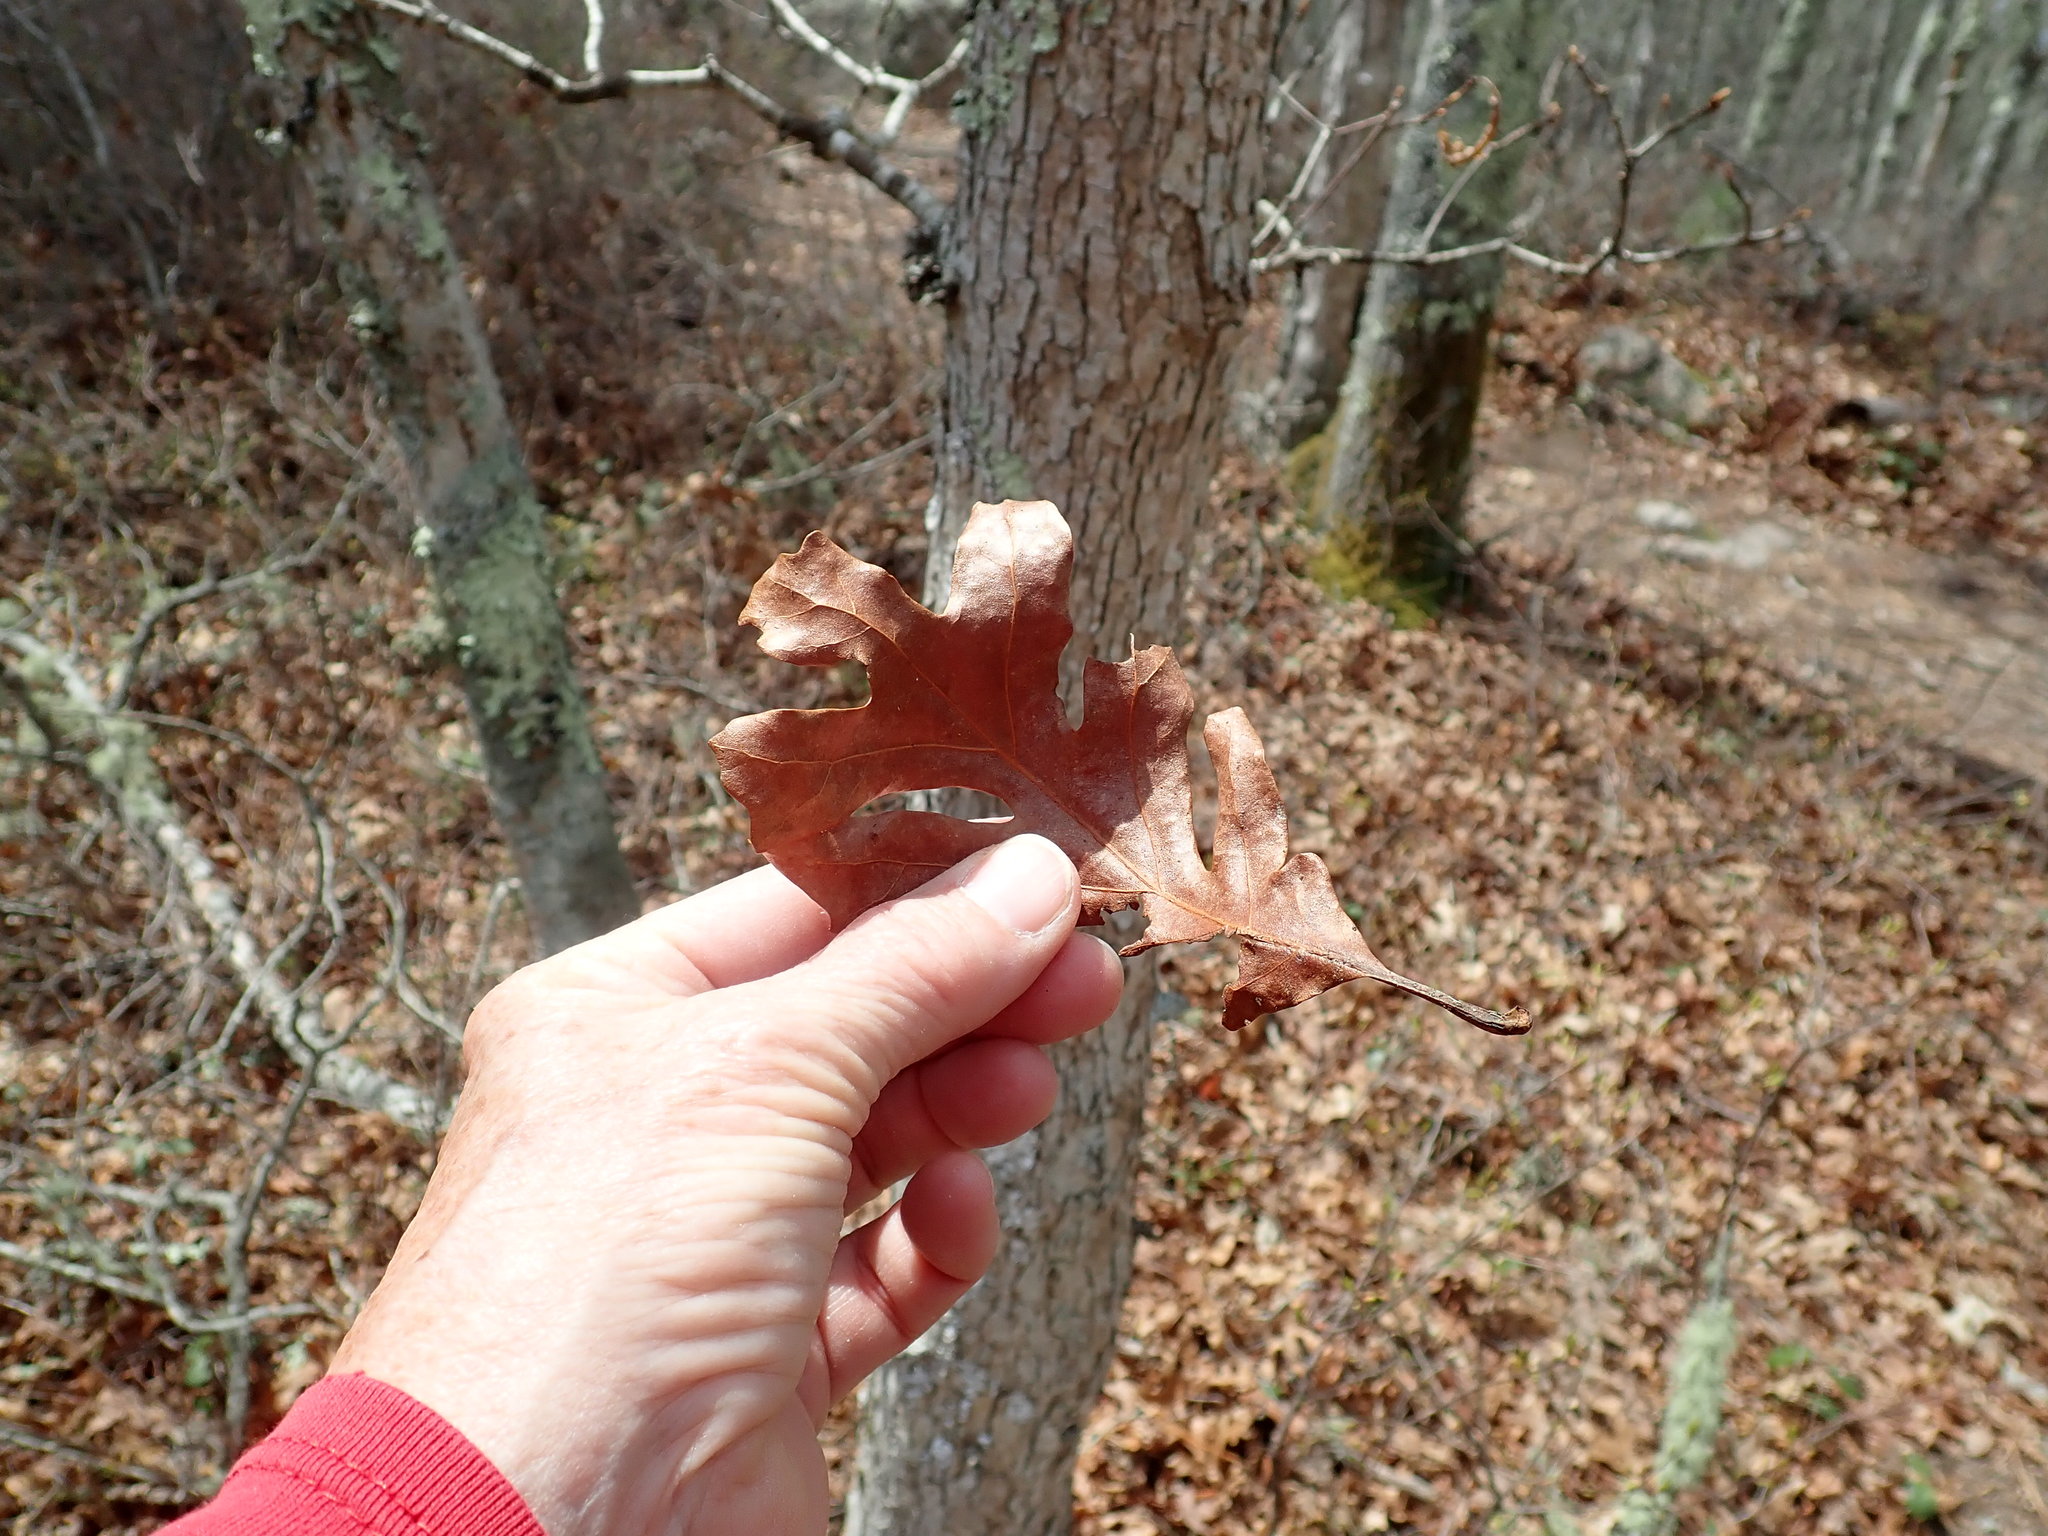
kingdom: Plantae
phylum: Tracheophyta
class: Magnoliopsida
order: Fagales
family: Fagaceae
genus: Quercus
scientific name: Quercus alba
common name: White oak
